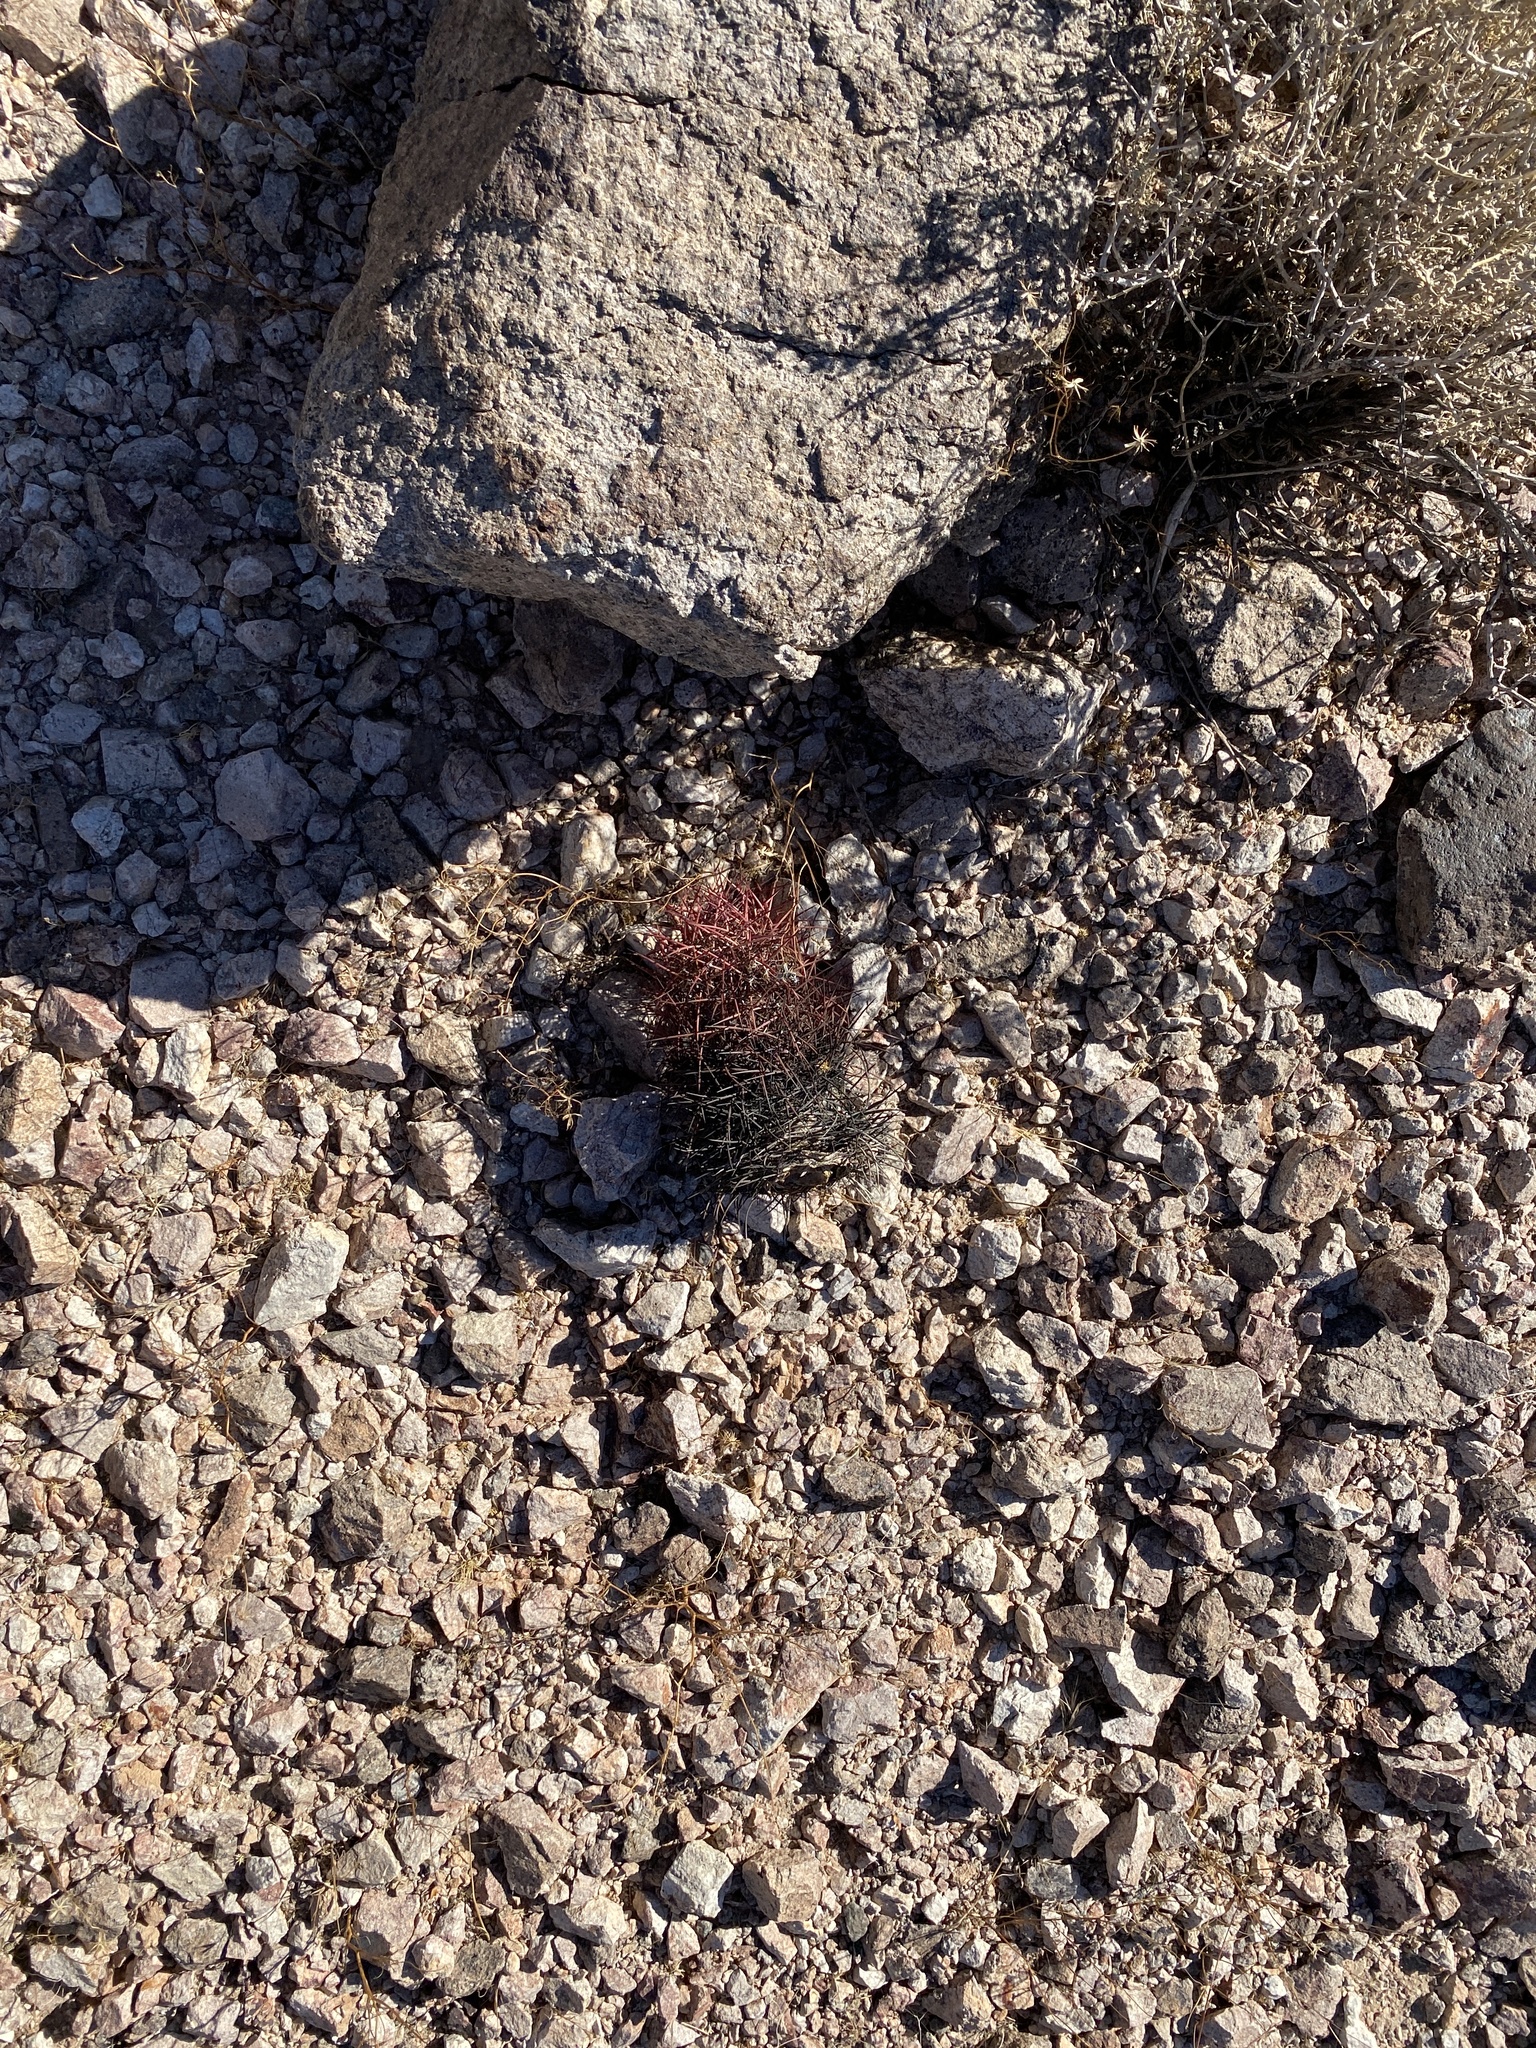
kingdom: Plantae
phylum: Tracheophyta
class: Magnoliopsida
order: Caryophyllales
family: Cactaceae
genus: Sclerocactus
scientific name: Sclerocactus johnsonii
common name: Eight-spine fishhook cactus
